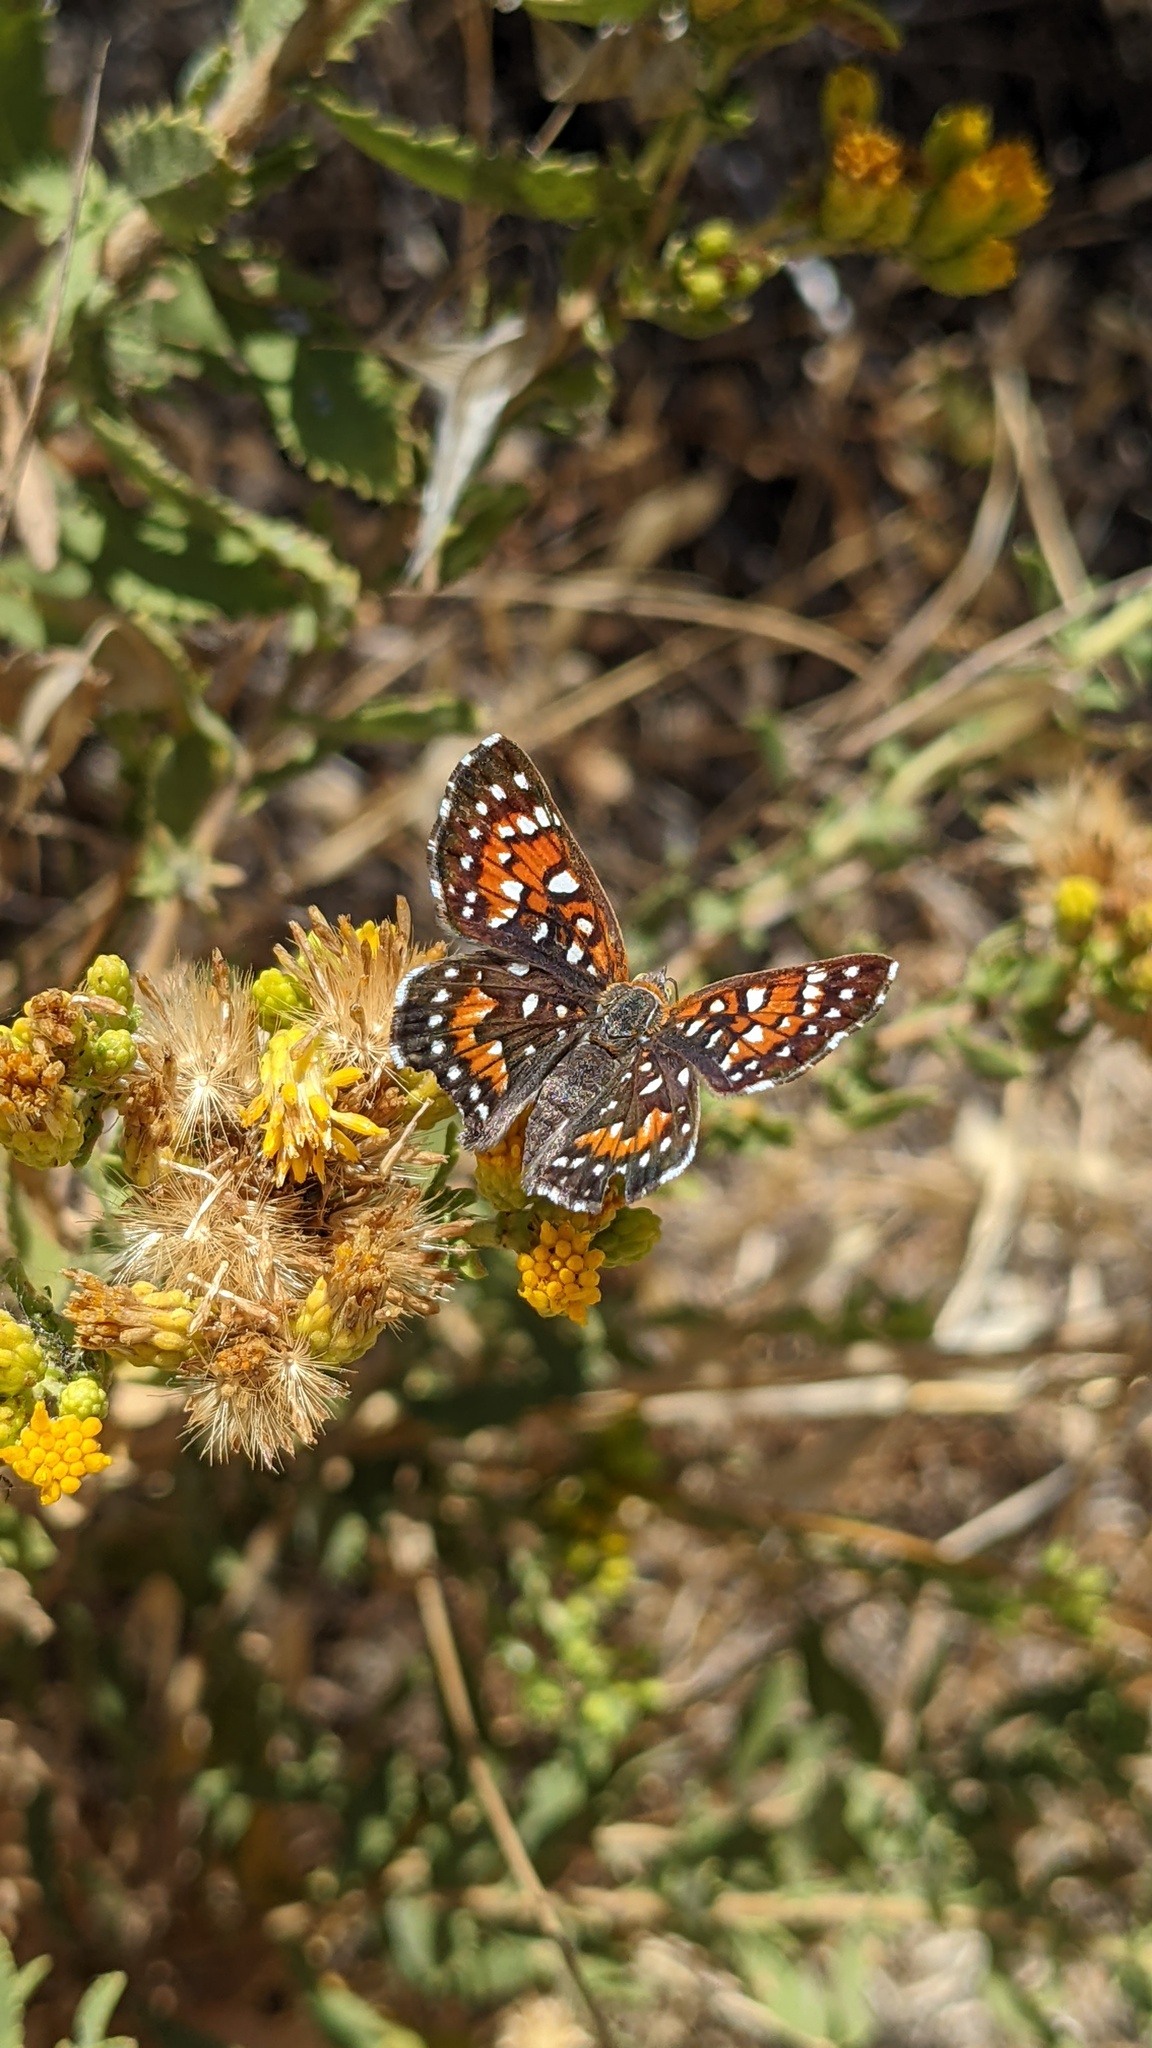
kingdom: Animalia
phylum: Arthropoda
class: Insecta
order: Lepidoptera
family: Riodinidae
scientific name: Riodinidae
